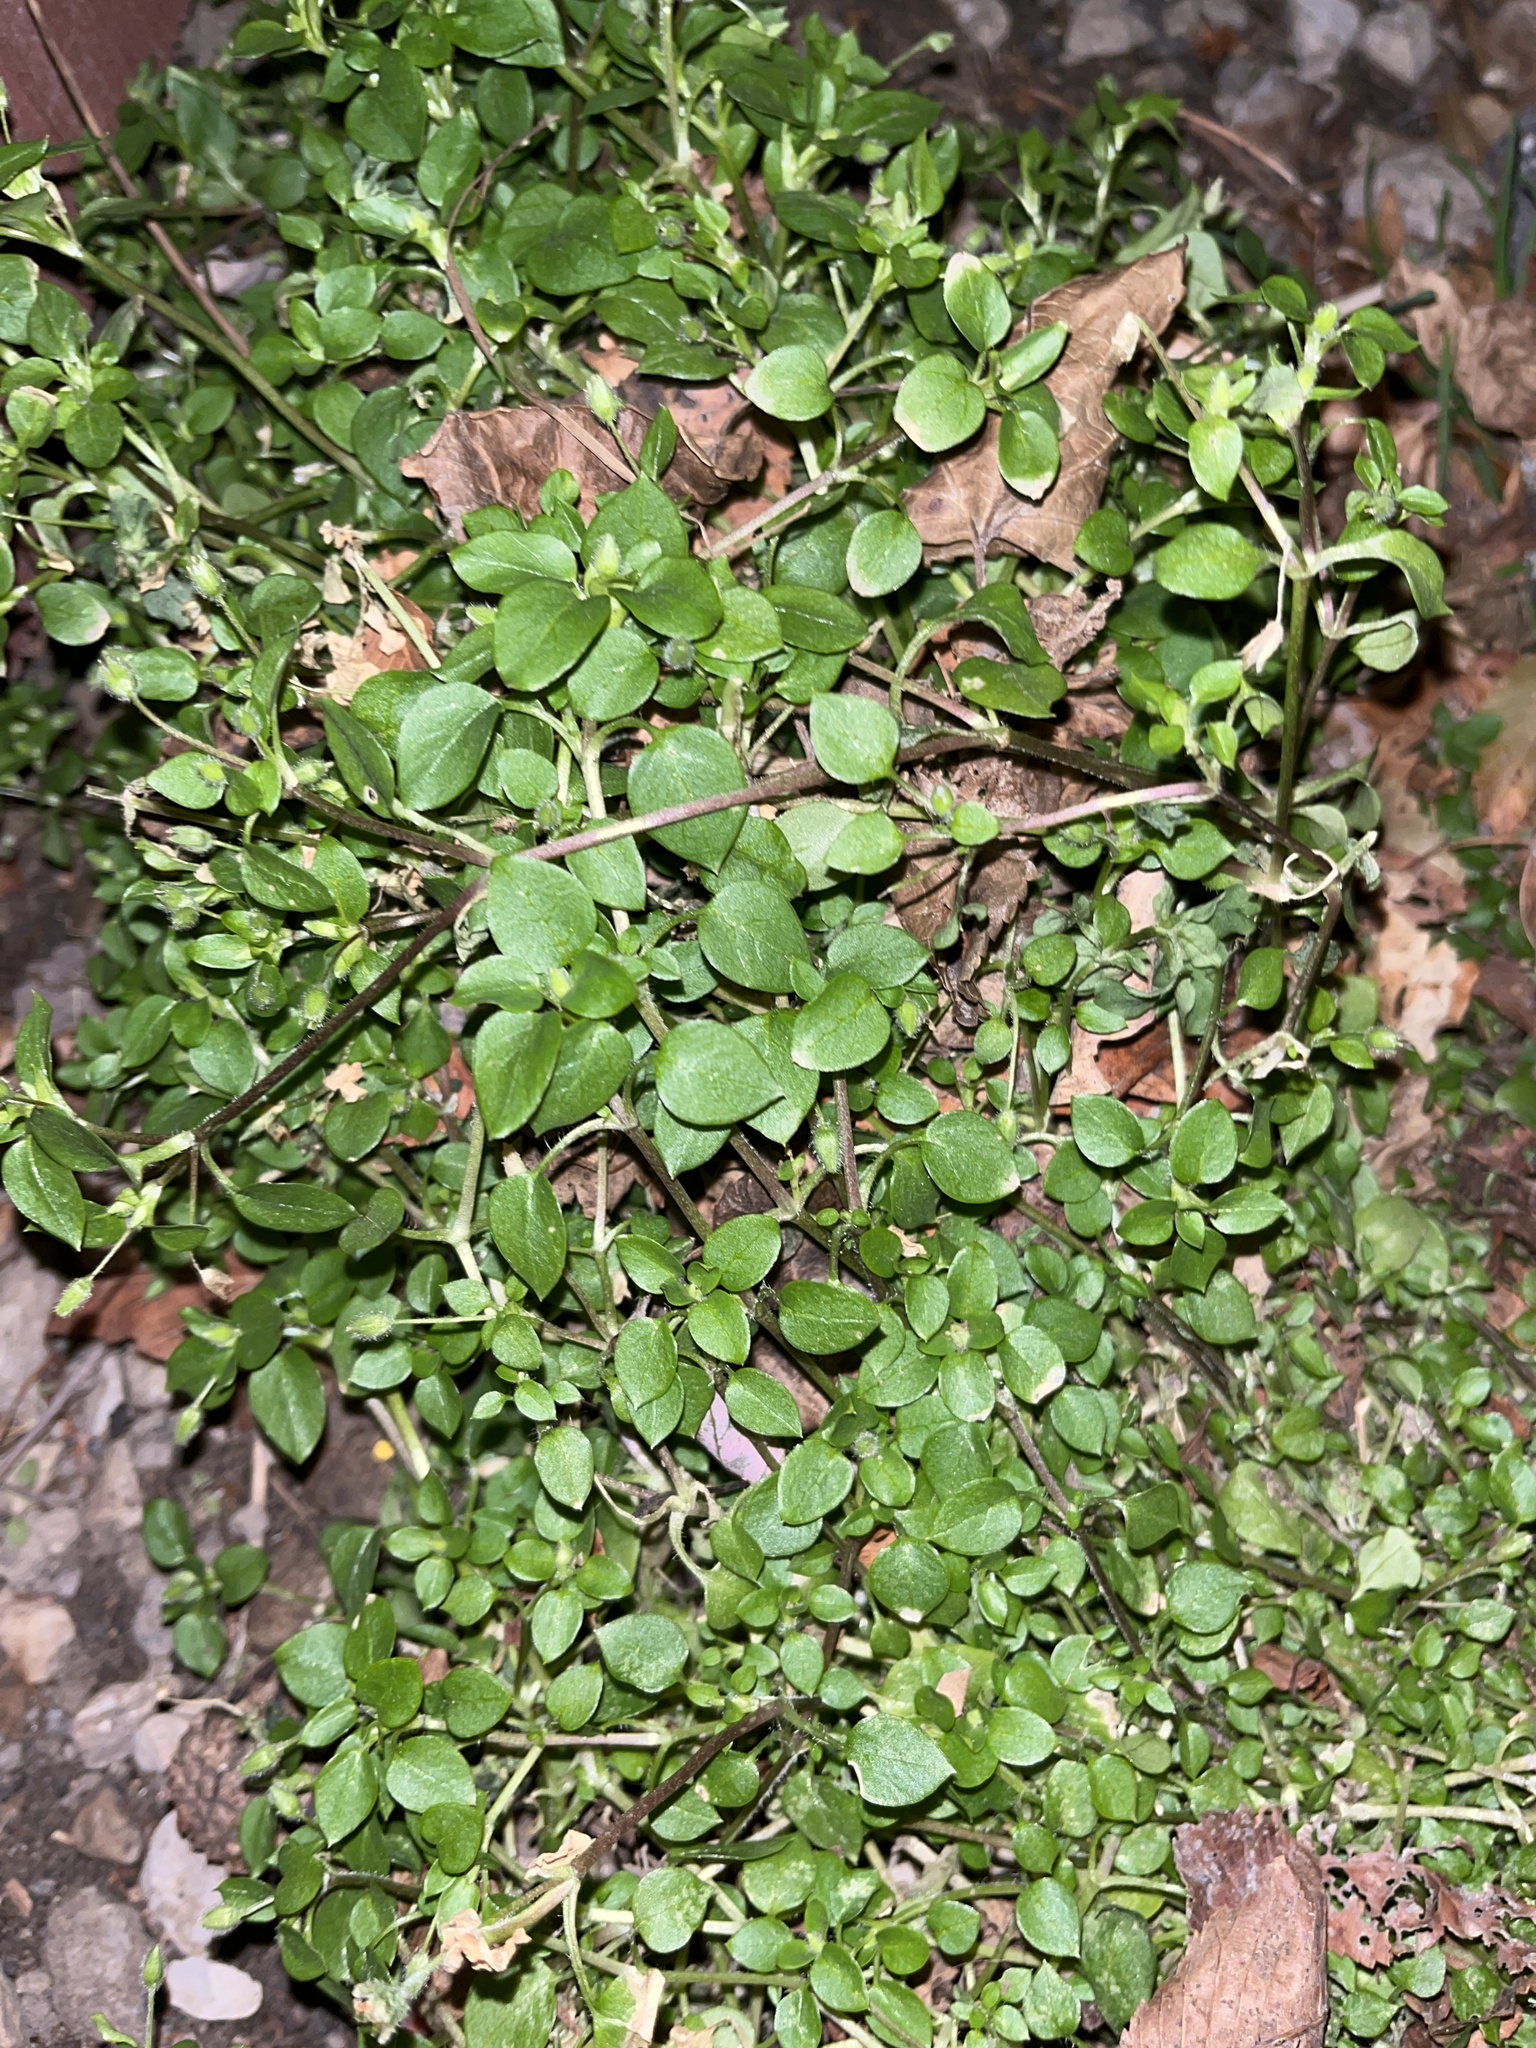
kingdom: Plantae
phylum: Tracheophyta
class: Magnoliopsida
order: Caryophyllales
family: Caryophyllaceae
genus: Stellaria
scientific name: Stellaria media
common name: Common chickweed
